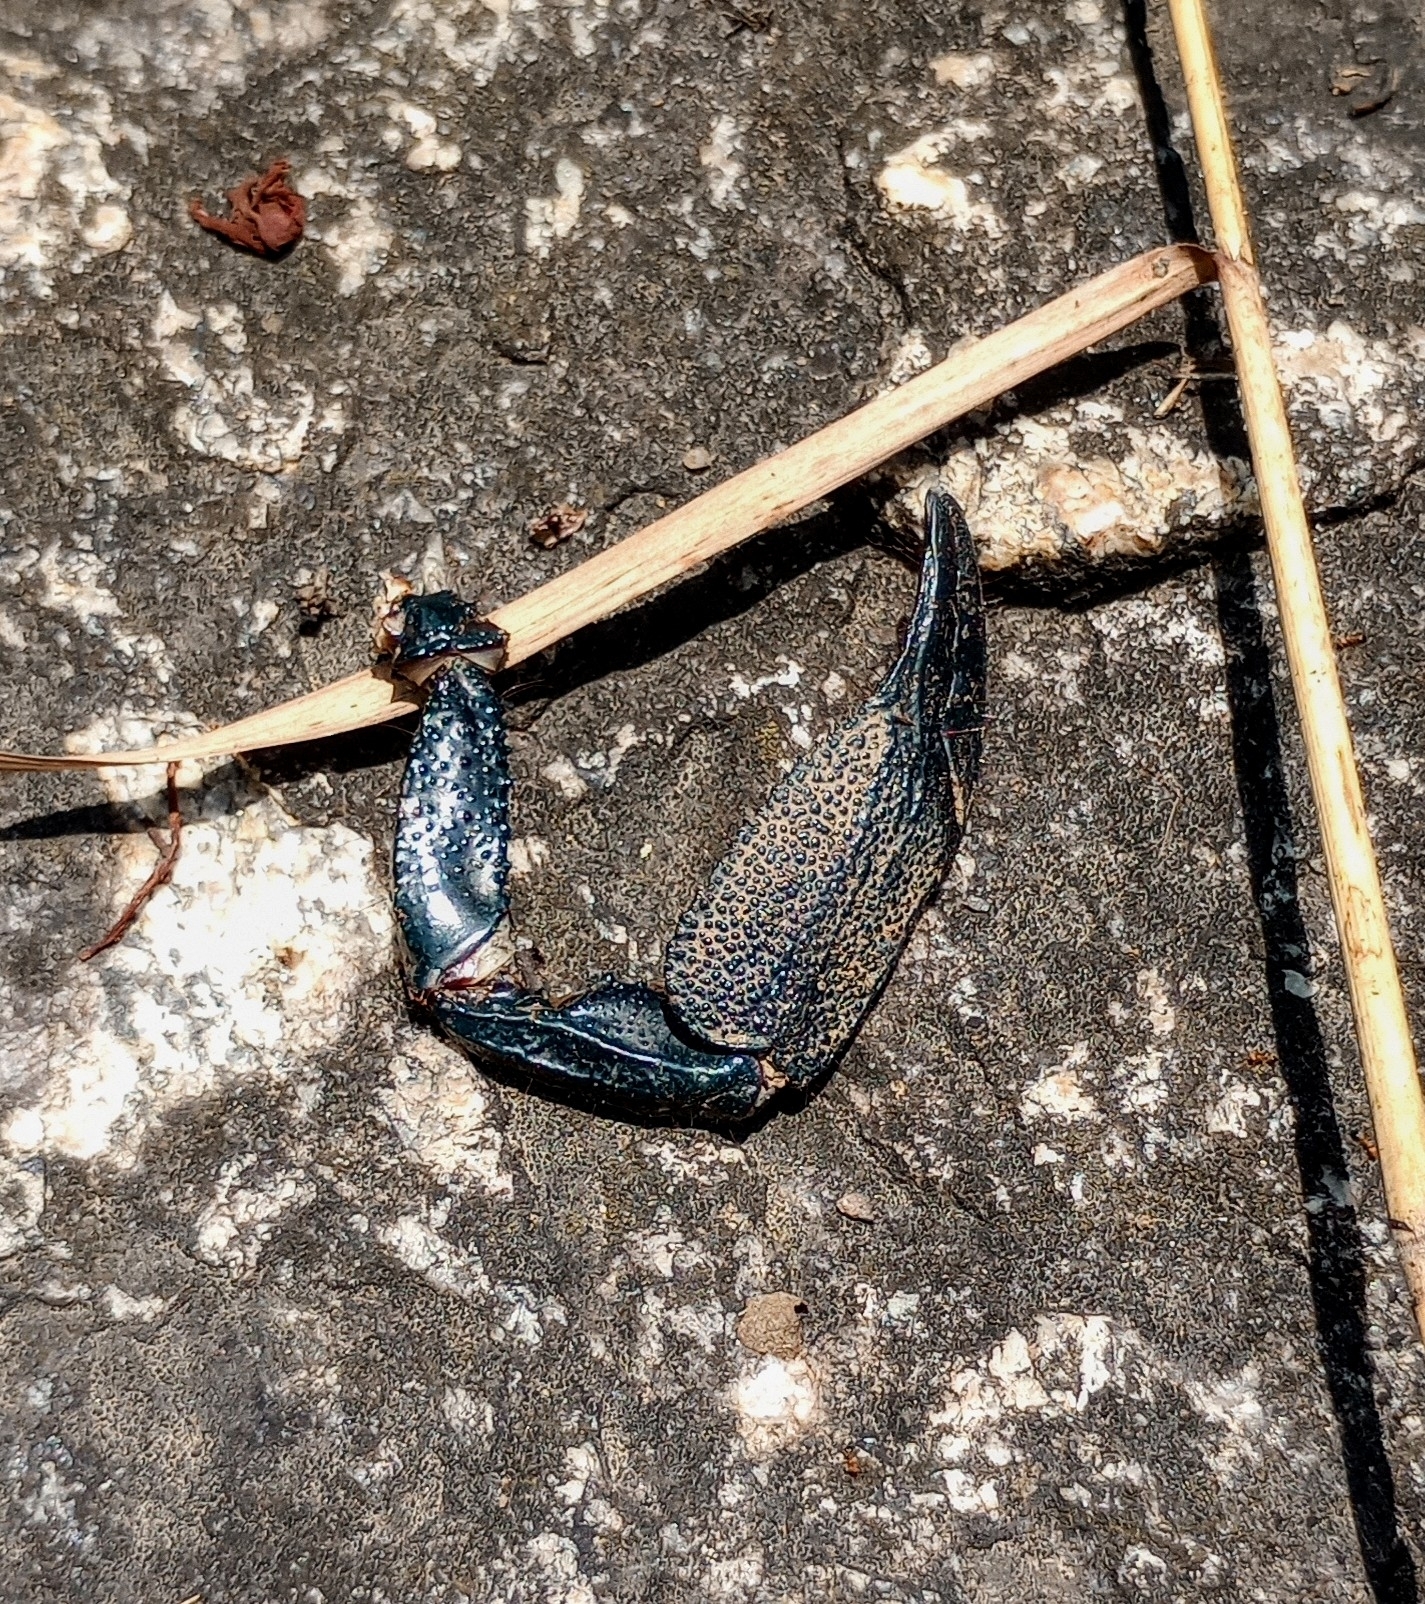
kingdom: Animalia
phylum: Arthropoda
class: Arachnida
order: Scorpiones
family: Scorpionidae
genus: Chersonesometrus
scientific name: Chersonesometrus tristis
